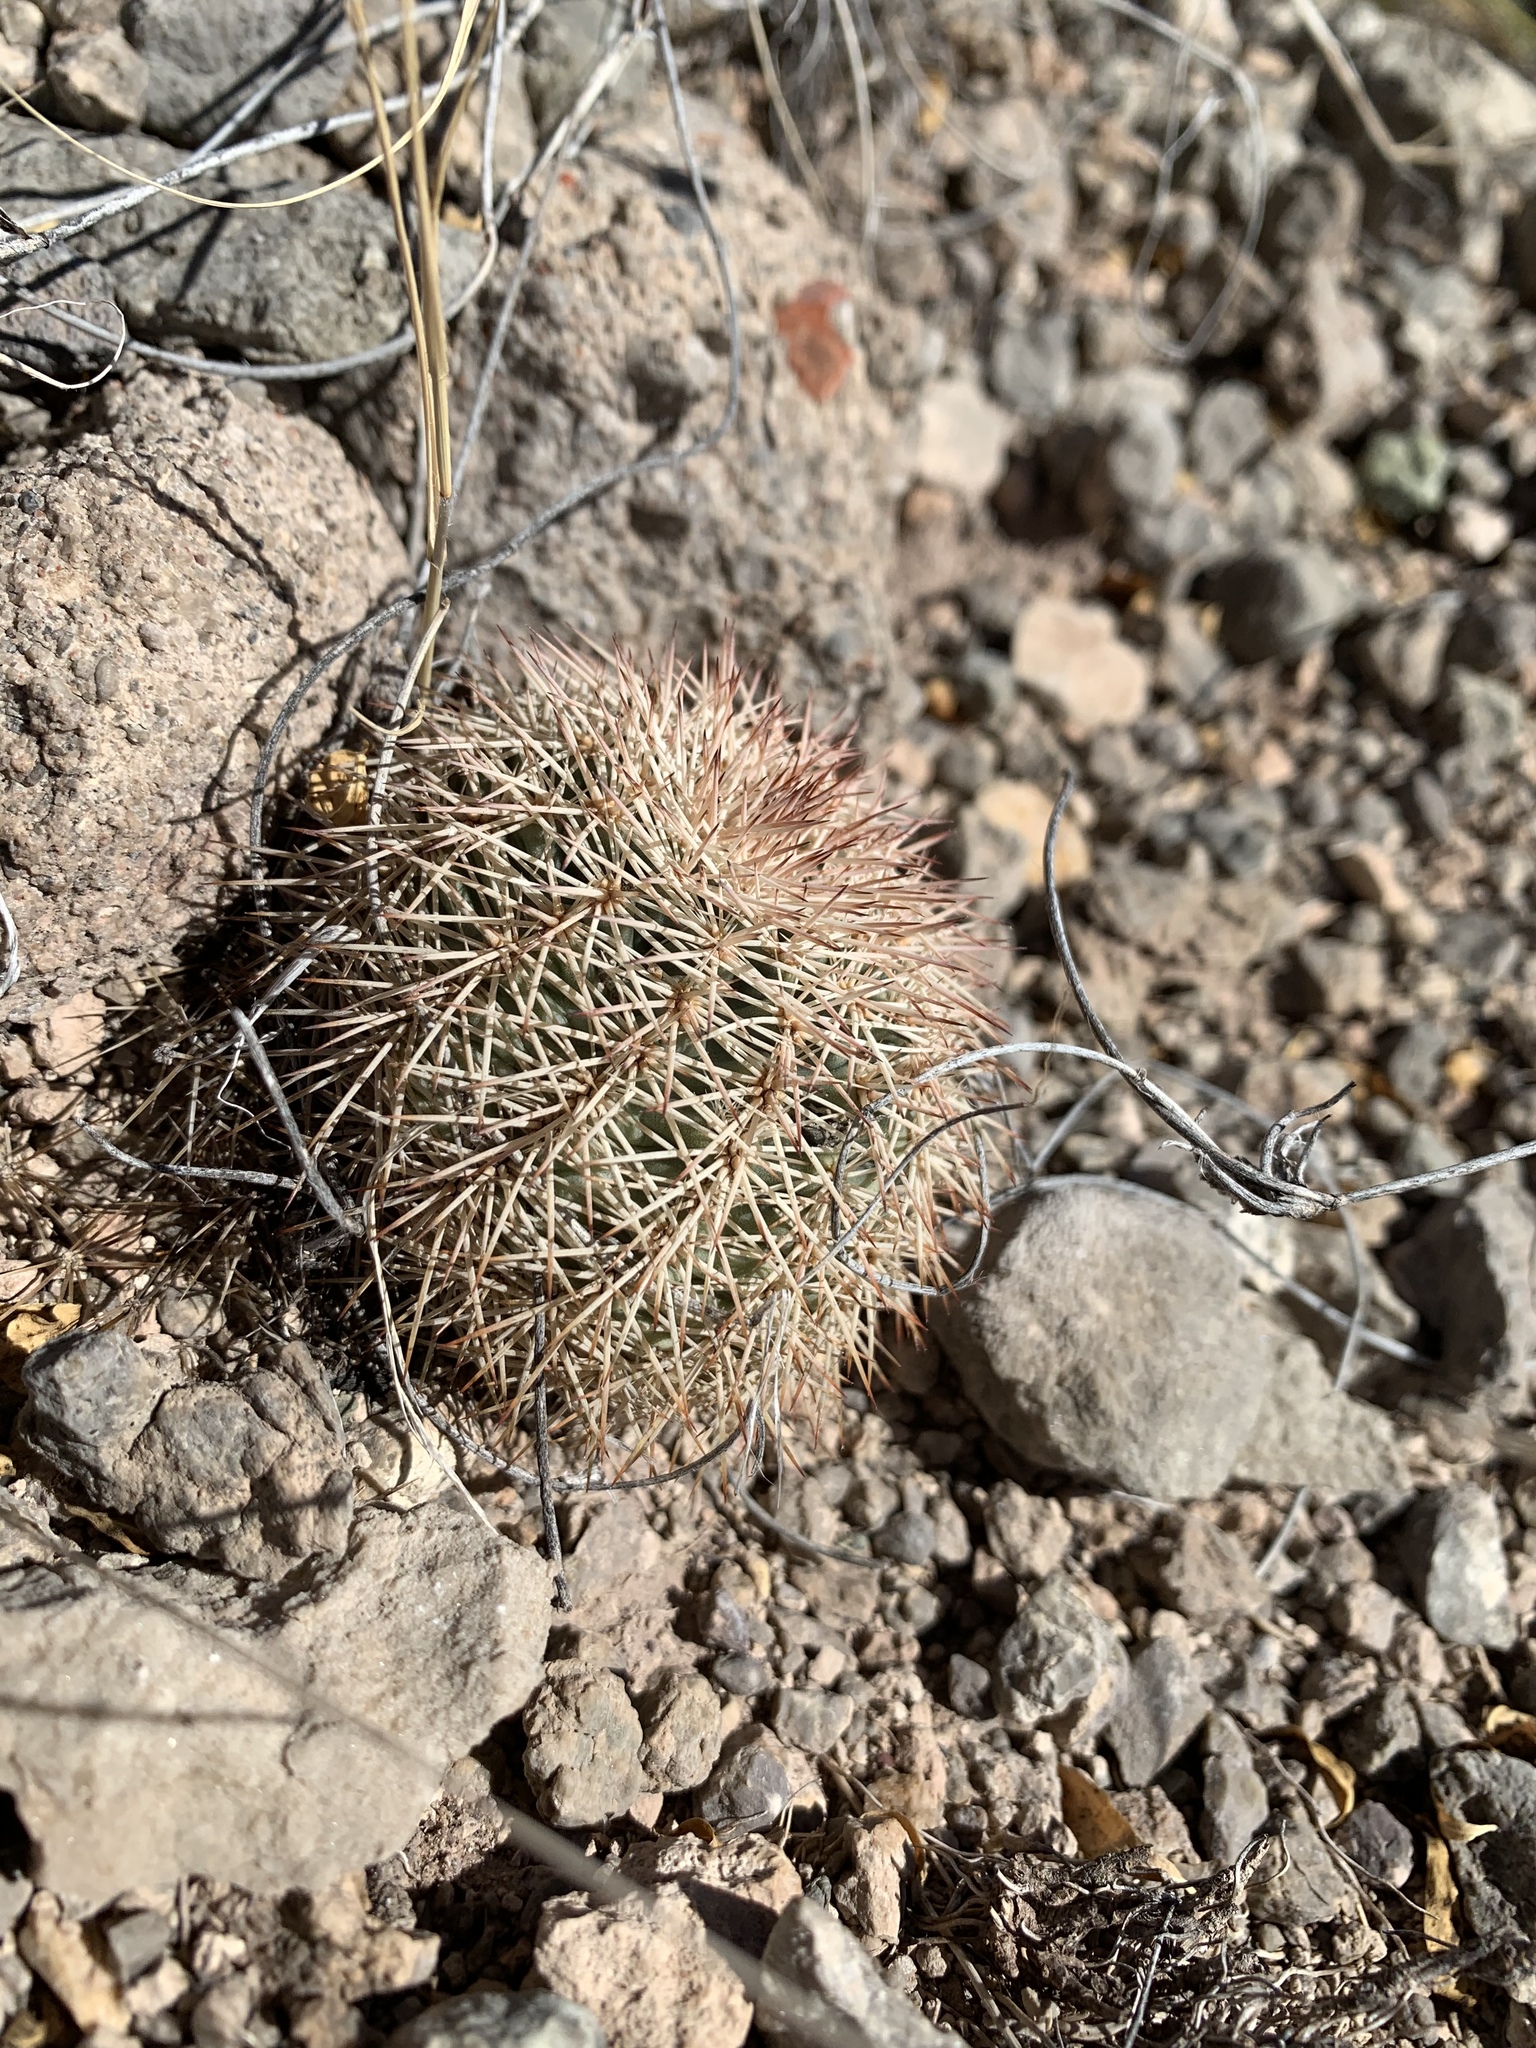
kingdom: Plantae
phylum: Tracheophyta
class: Magnoliopsida
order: Caryophyllales
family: Cactaceae
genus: Echinocereus
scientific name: Echinocereus dasyacanthus
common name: Spiny hedgehog cactus
